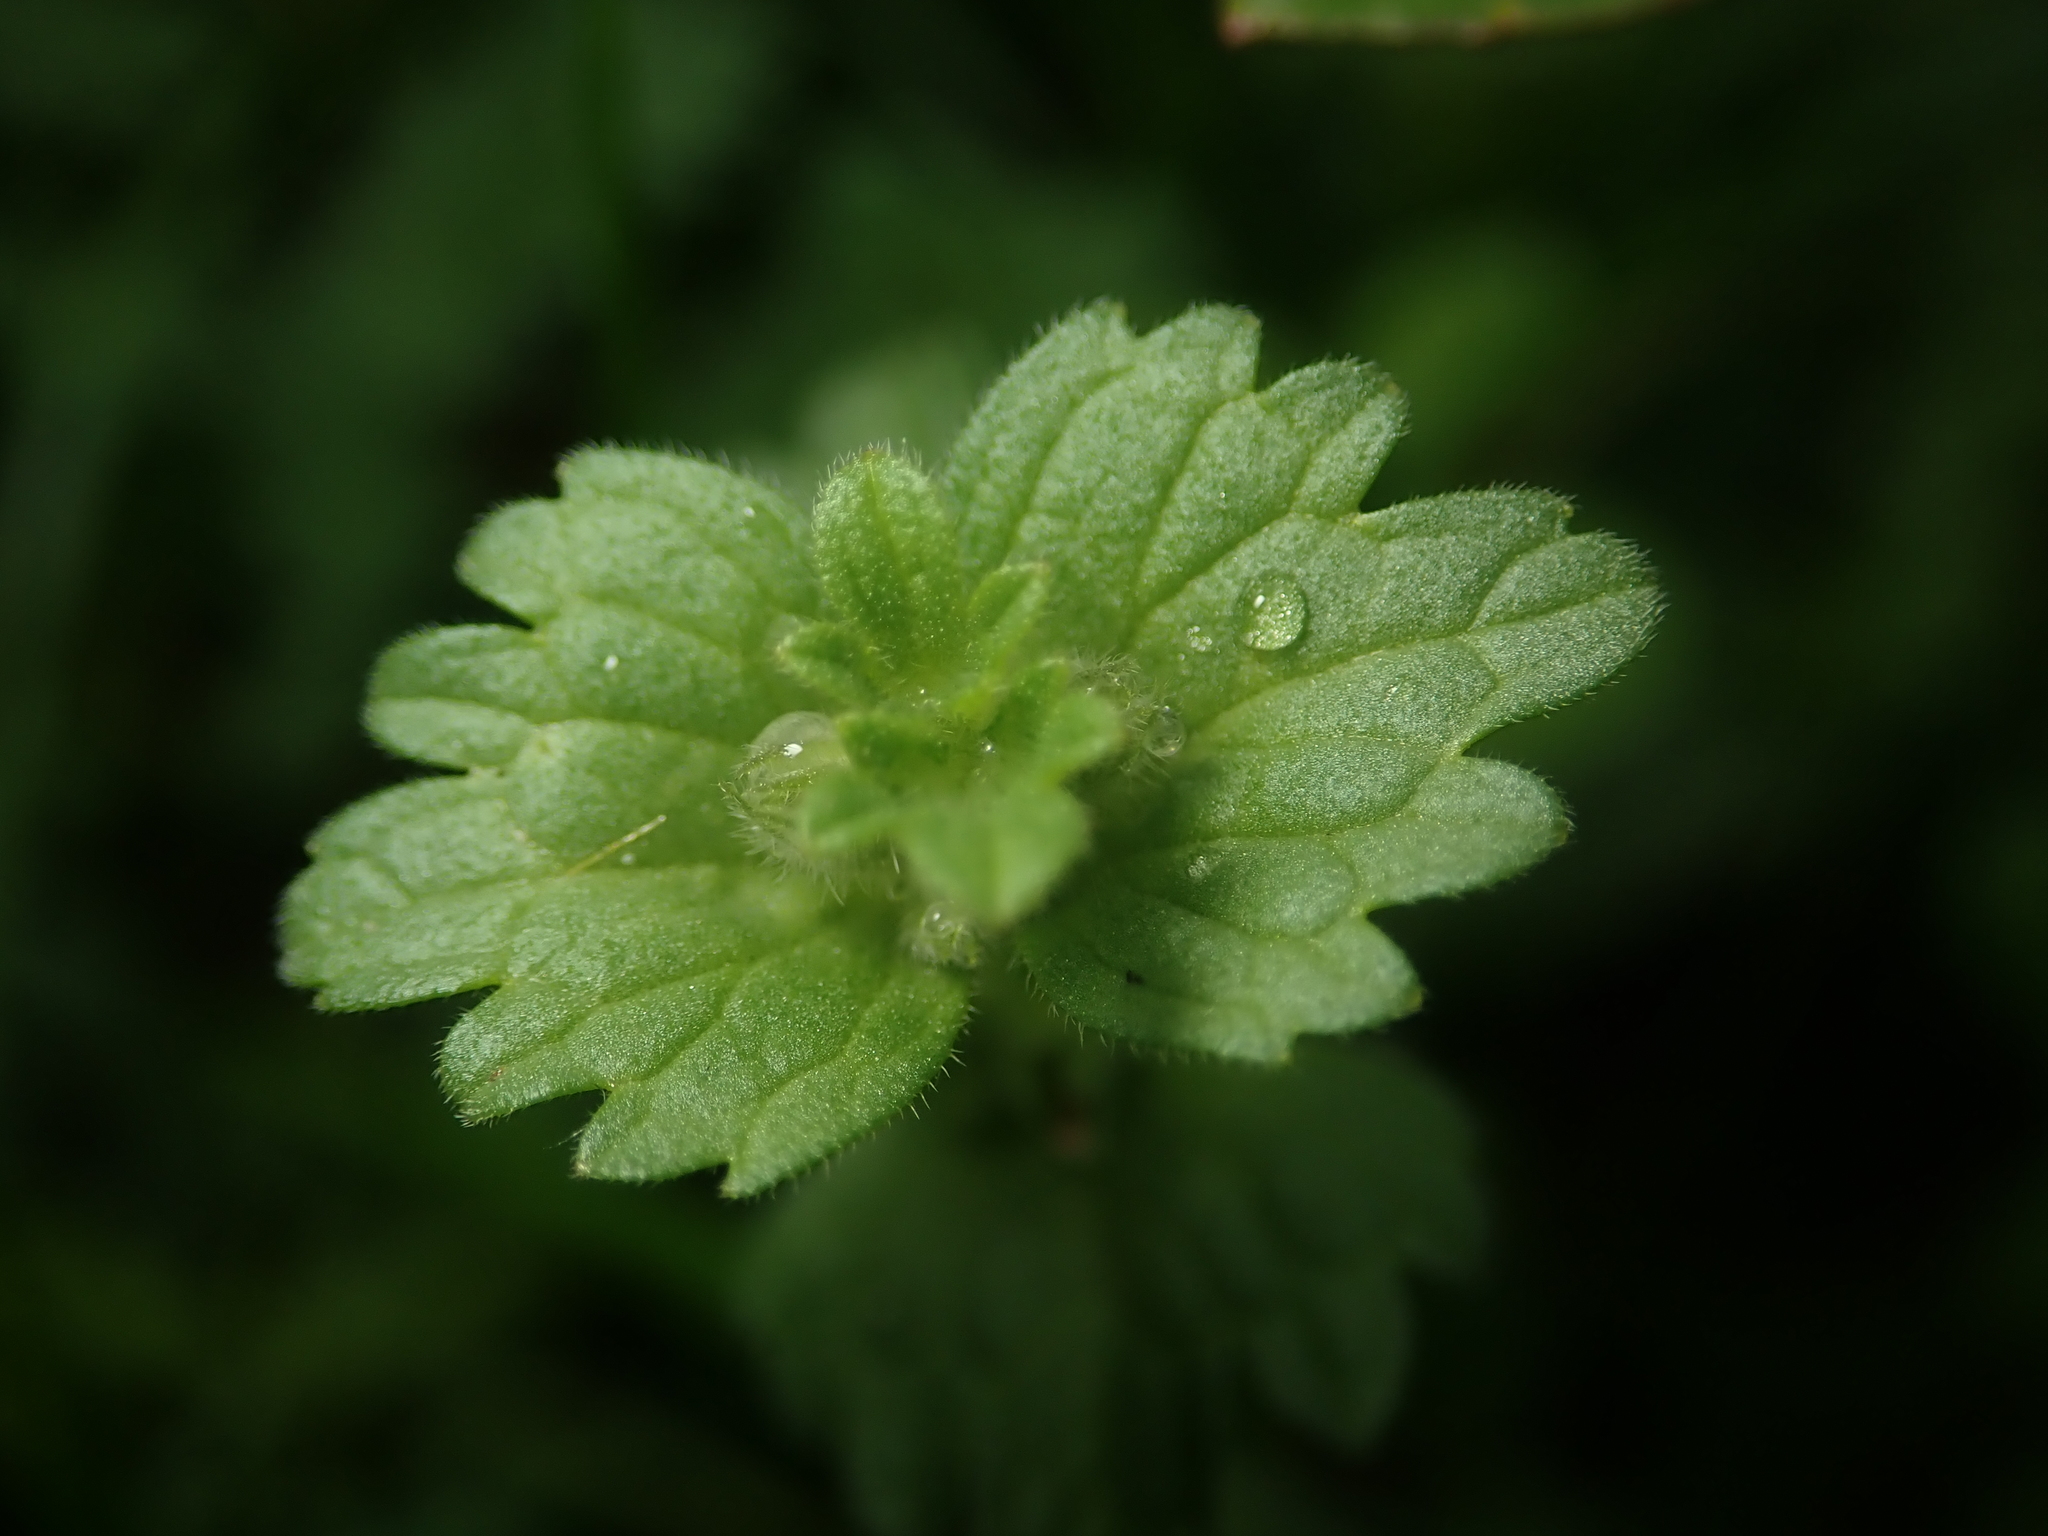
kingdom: Plantae
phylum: Tracheophyta
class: Magnoliopsida
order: Lamiales
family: Lamiaceae
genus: Lamium
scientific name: Lamium amplexicaule
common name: Henbit dead-nettle
